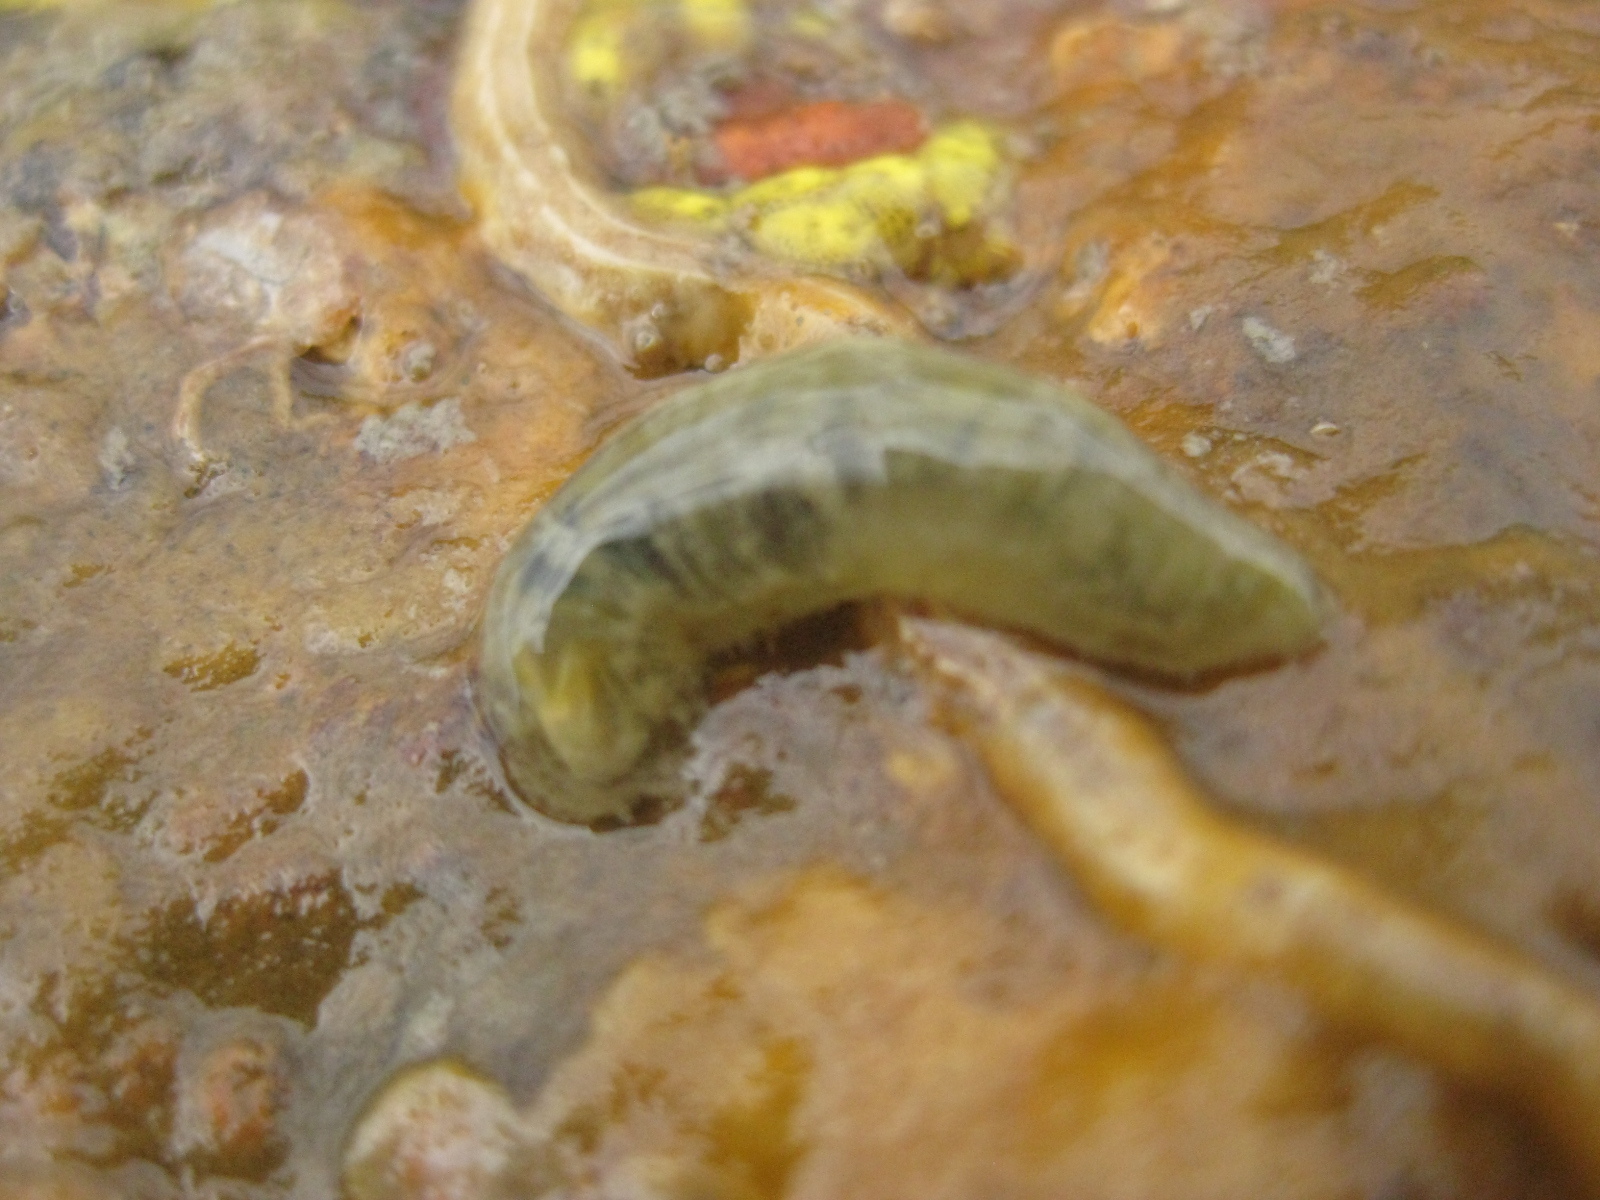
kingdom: Animalia
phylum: Annelida
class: Polychaeta
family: Flabelligeridae
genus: Flabelligera
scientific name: Flabelligera bicolor
